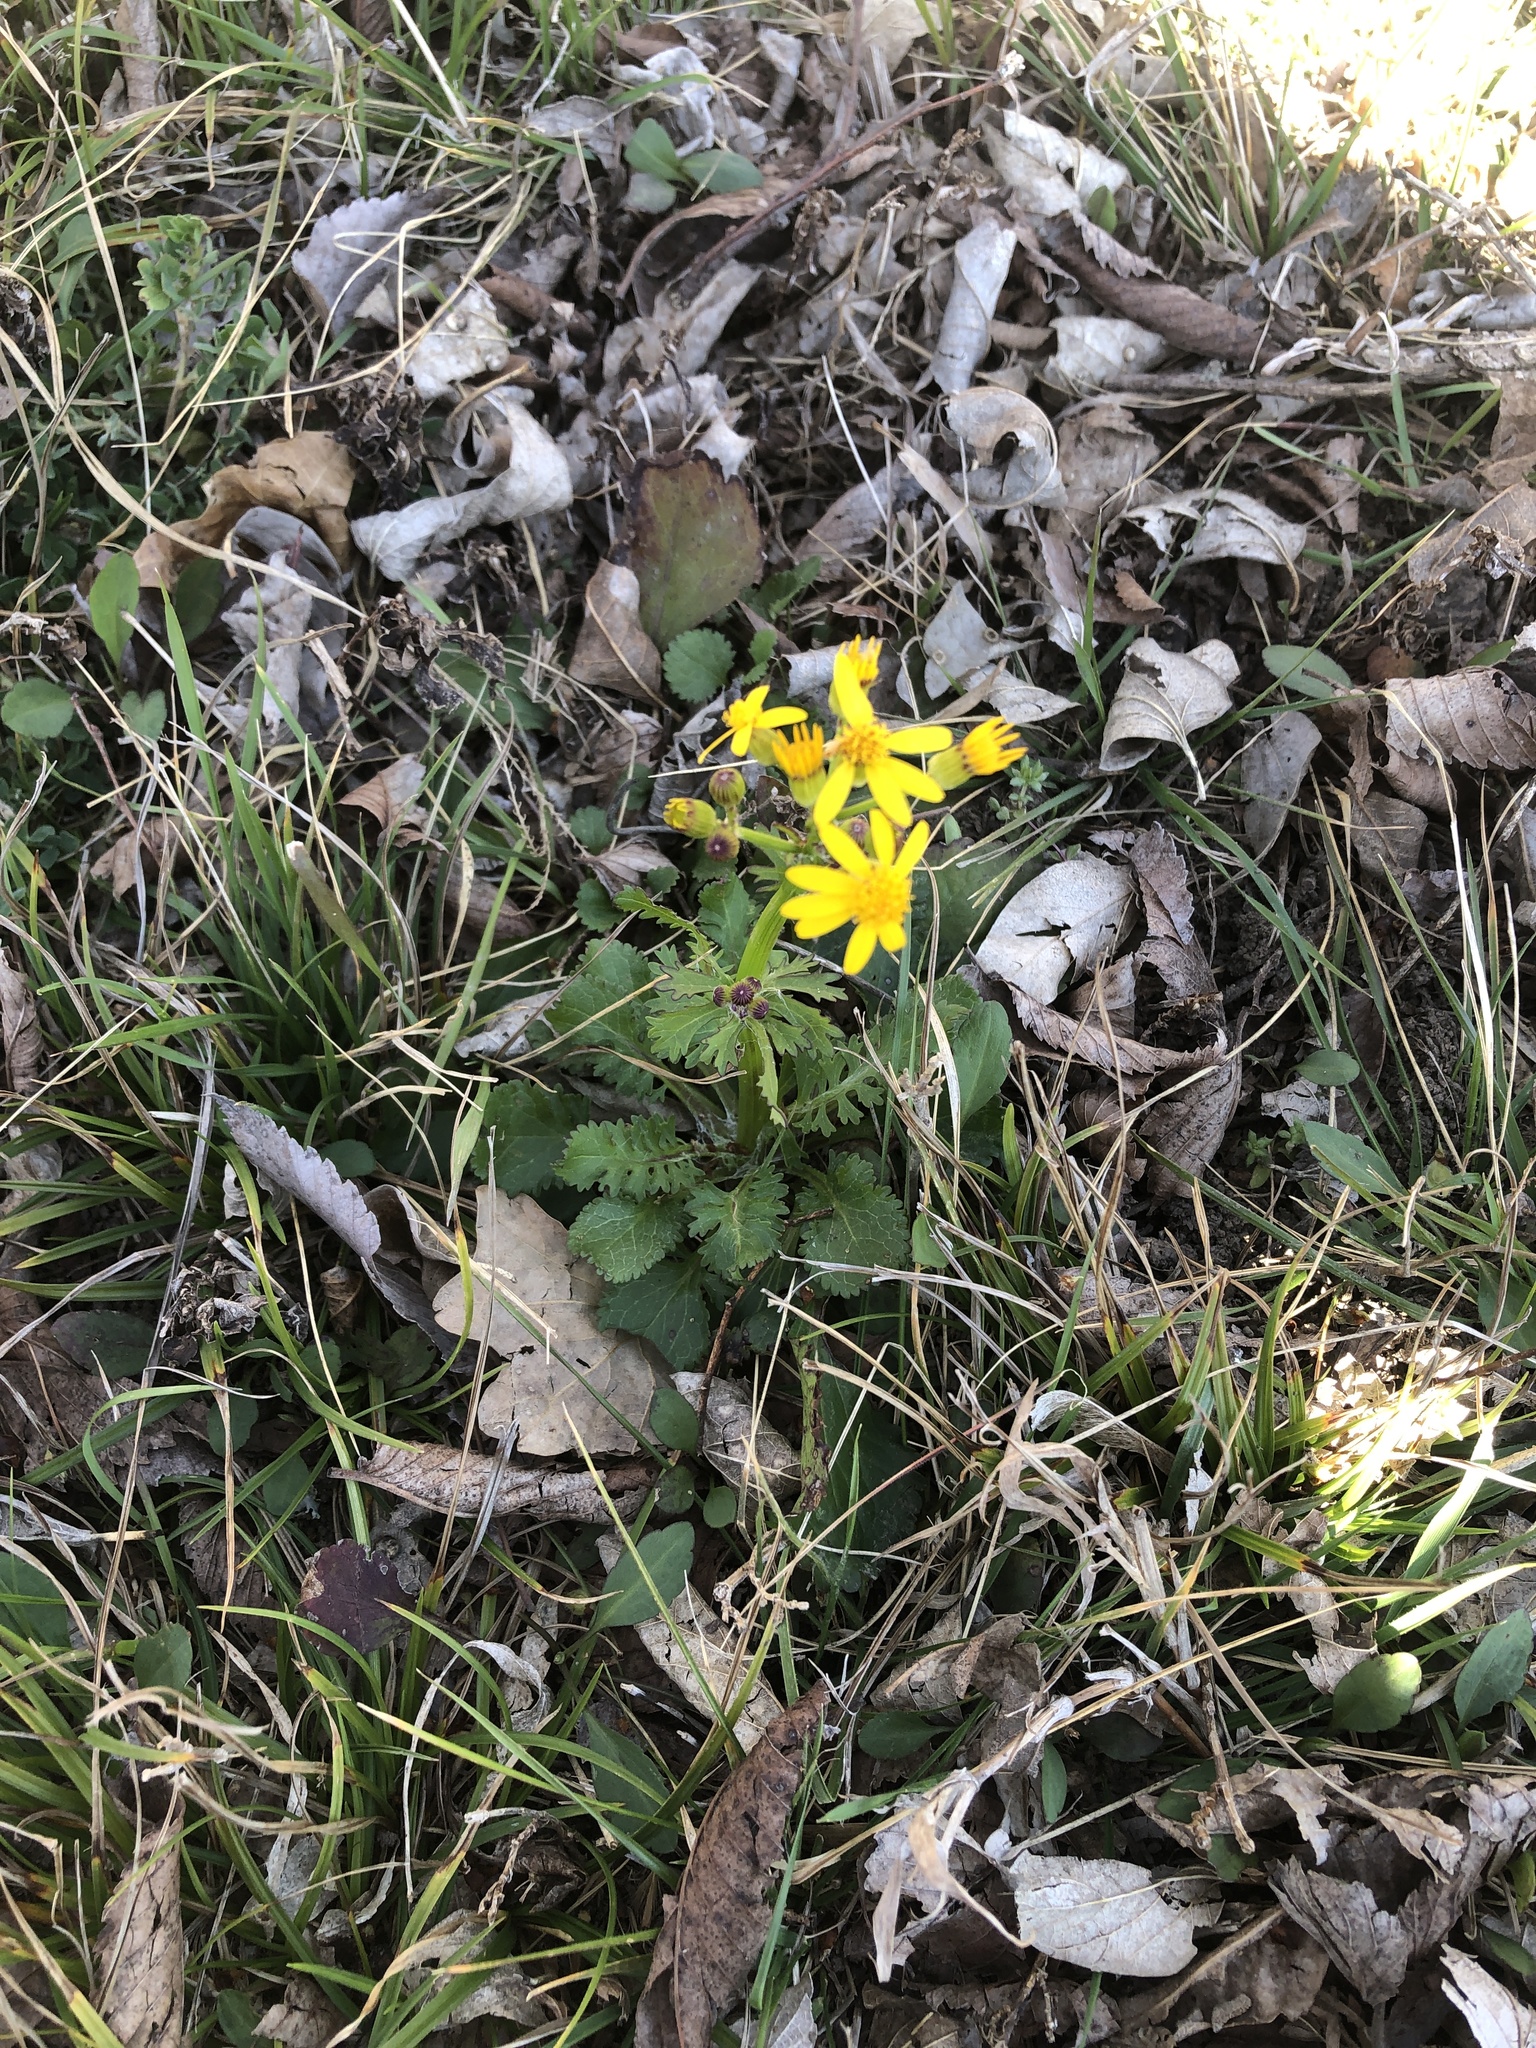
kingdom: Plantae
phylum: Tracheophyta
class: Magnoliopsida
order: Asterales
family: Asteraceae
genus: Packera
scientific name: Packera obovata
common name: Round-leaf ragwort
